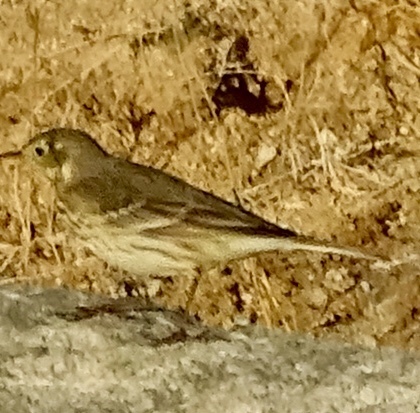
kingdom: Animalia
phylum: Chordata
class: Aves
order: Passeriformes
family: Motacillidae
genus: Anthus
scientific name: Anthus rubescens
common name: Buff-bellied pipit
